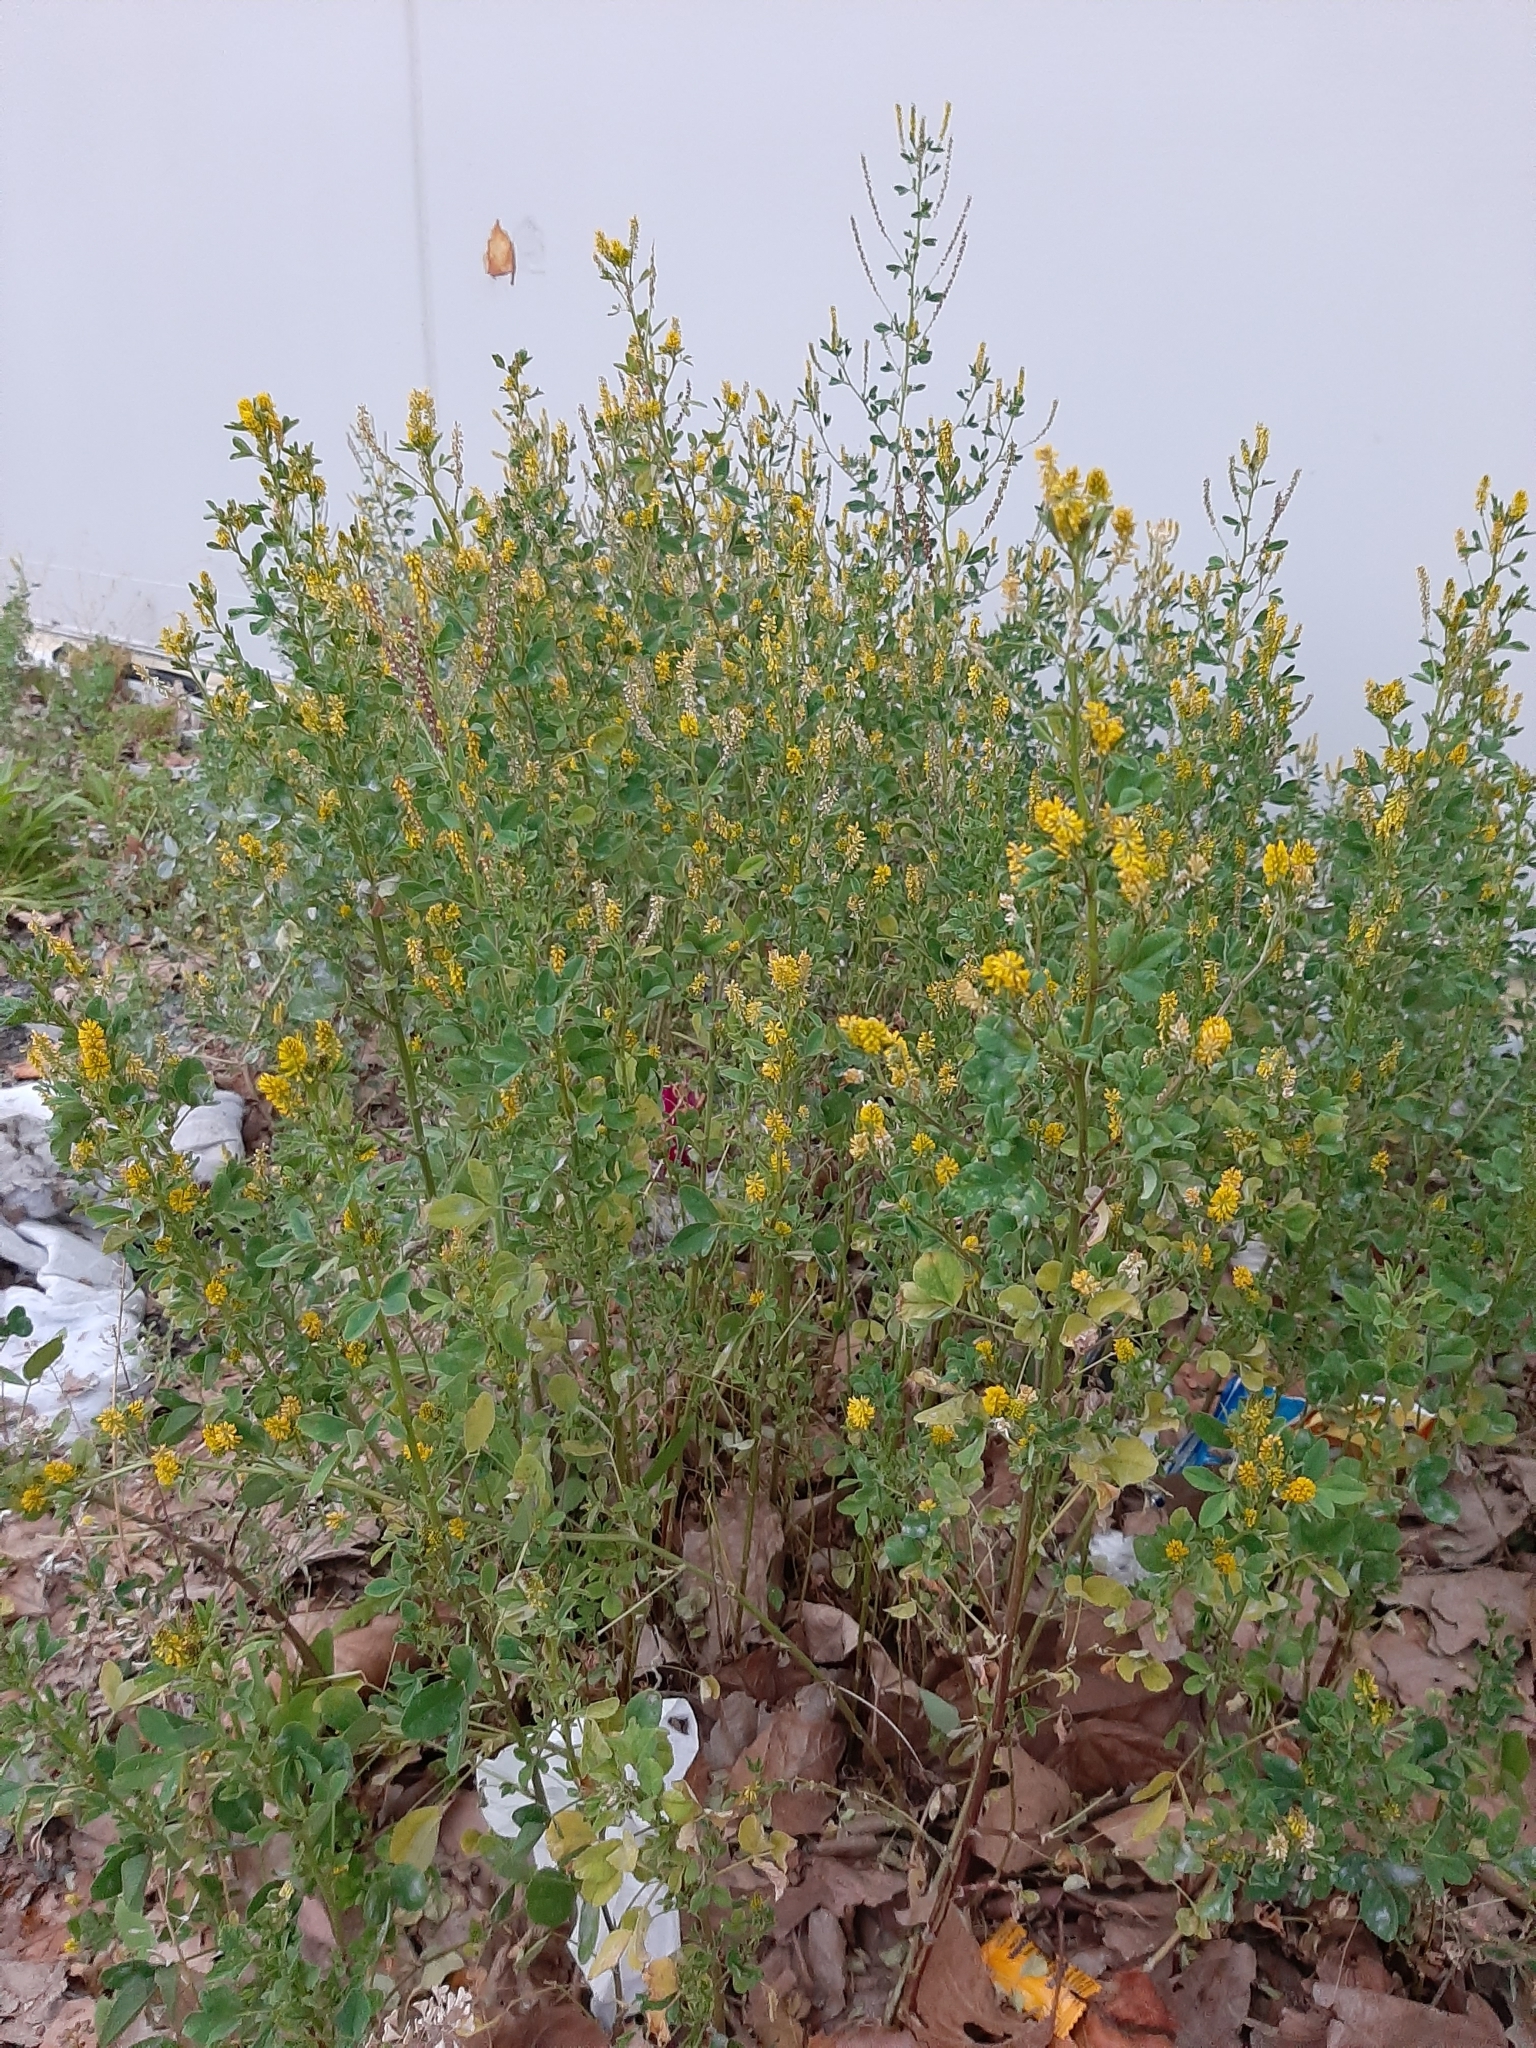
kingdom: Plantae
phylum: Tracheophyta
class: Magnoliopsida
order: Fabales
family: Fabaceae
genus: Melilotus
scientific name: Melilotus indicus
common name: Small melilot
